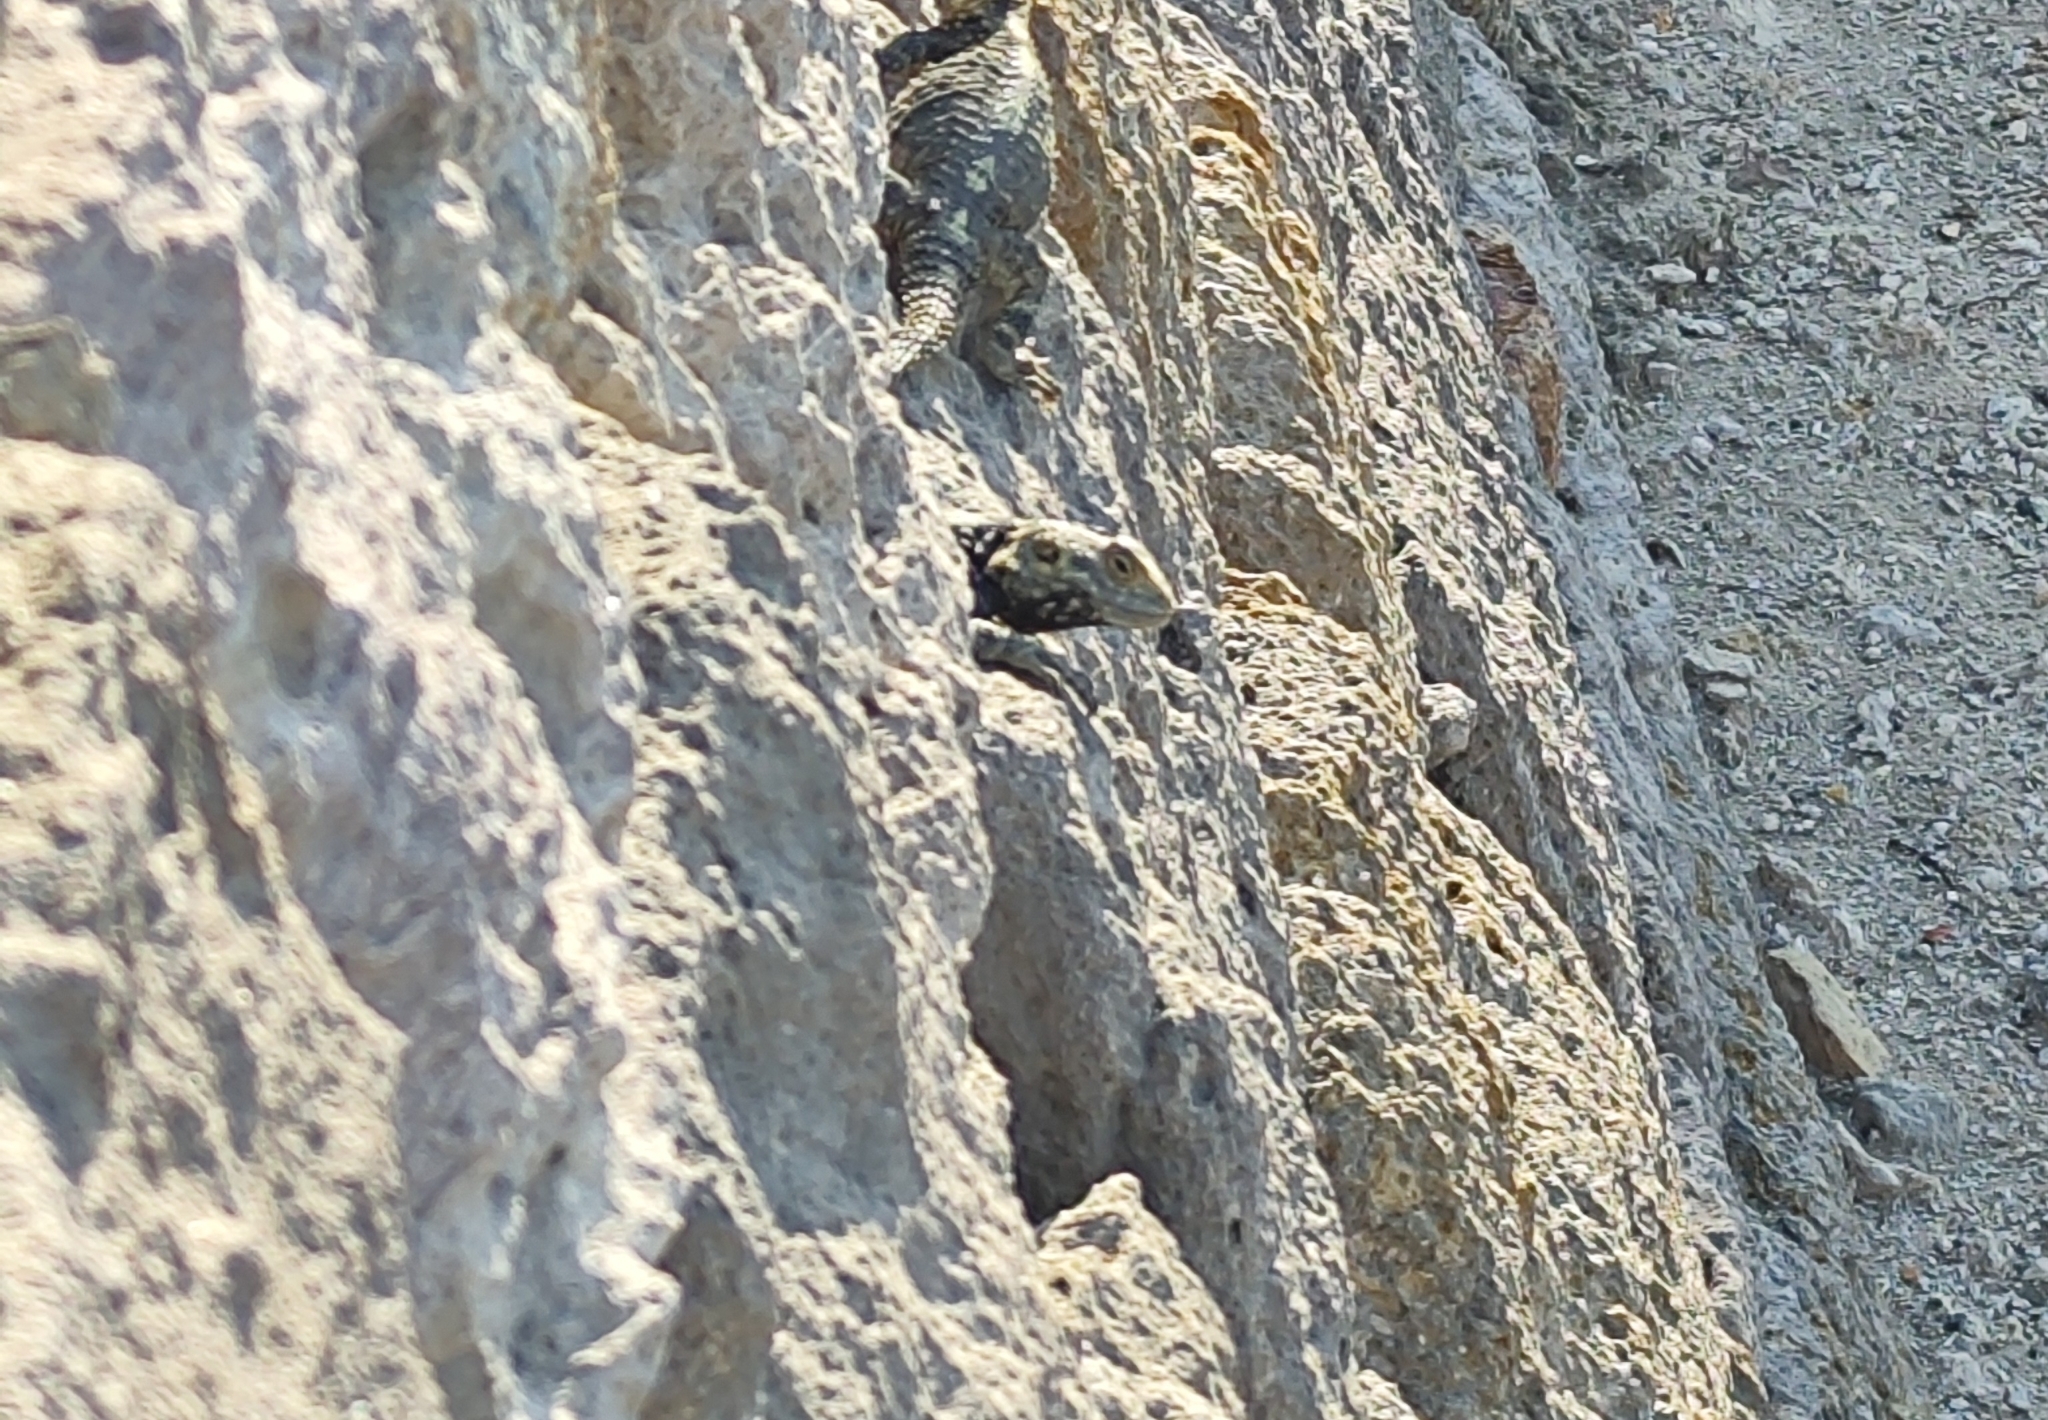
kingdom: Animalia
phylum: Chordata
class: Squamata
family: Agamidae
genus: Stellagama
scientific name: Stellagama stellio
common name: Starred agama
